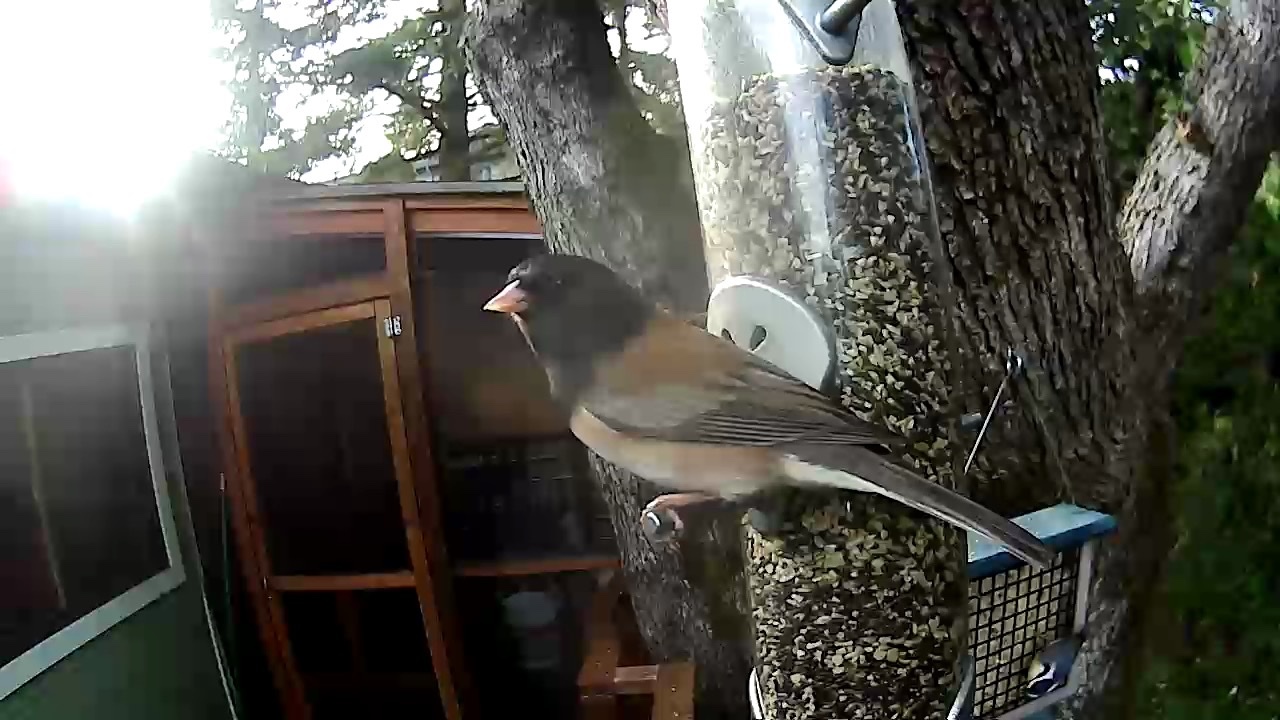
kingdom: Animalia
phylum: Chordata
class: Aves
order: Passeriformes
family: Passerellidae
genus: Junco
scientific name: Junco hyemalis
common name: Dark-eyed junco
